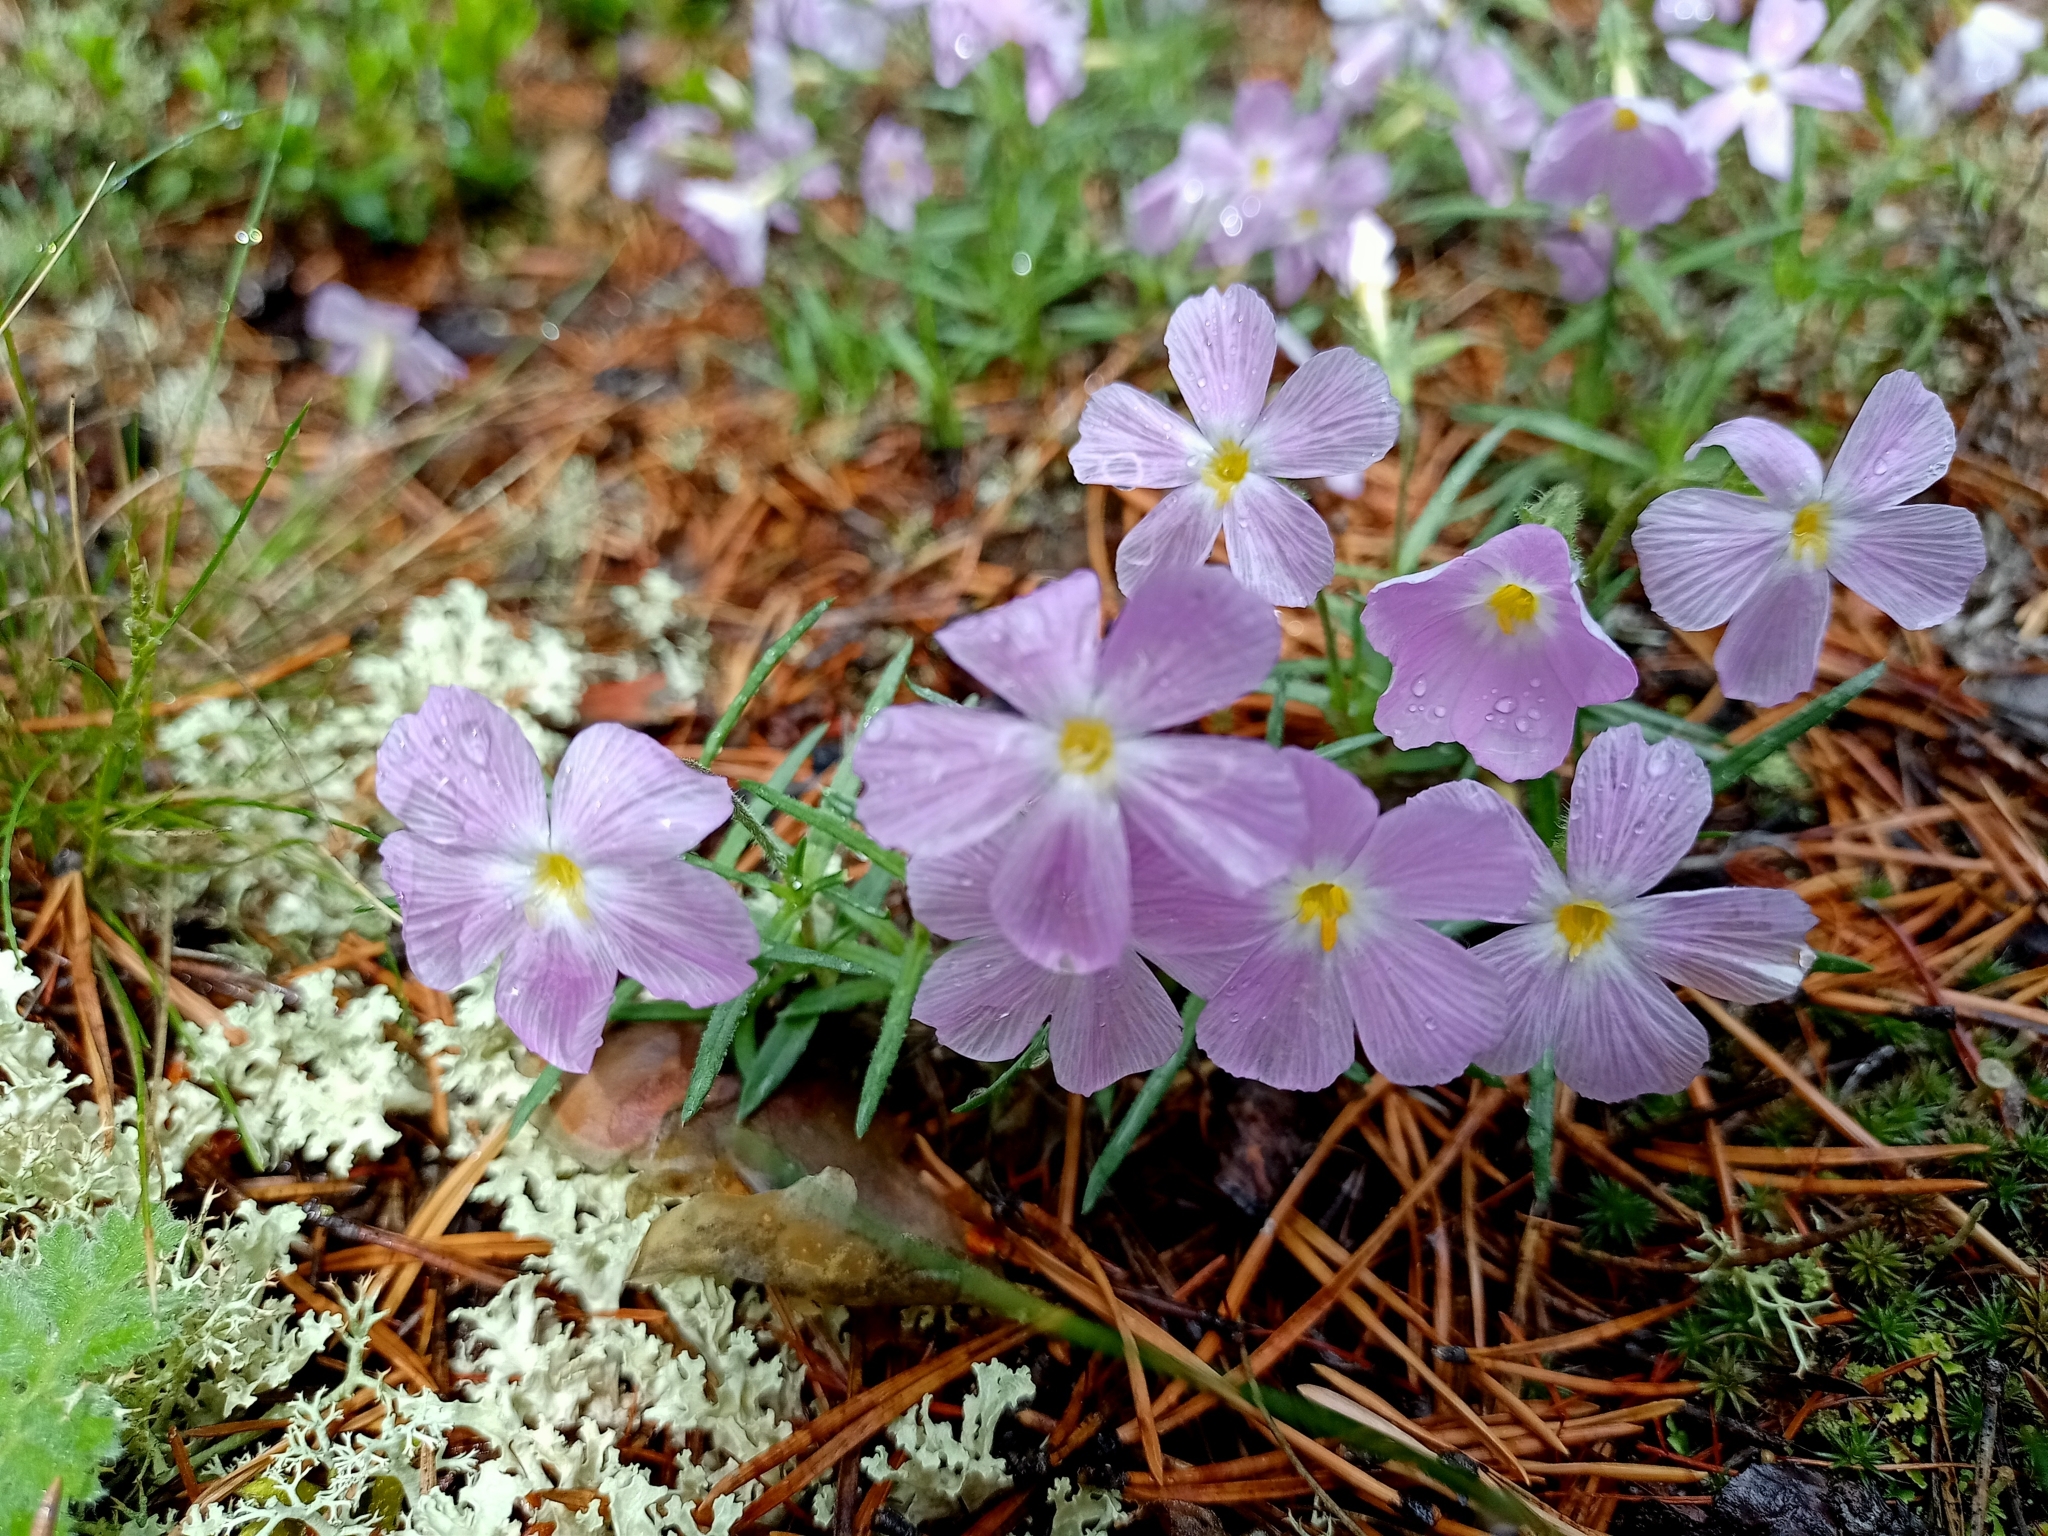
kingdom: Plantae
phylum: Tracheophyta
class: Magnoliopsida
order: Ericales
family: Polemoniaceae
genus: Phlox
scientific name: Phlox sibirica
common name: Siberian phlox
